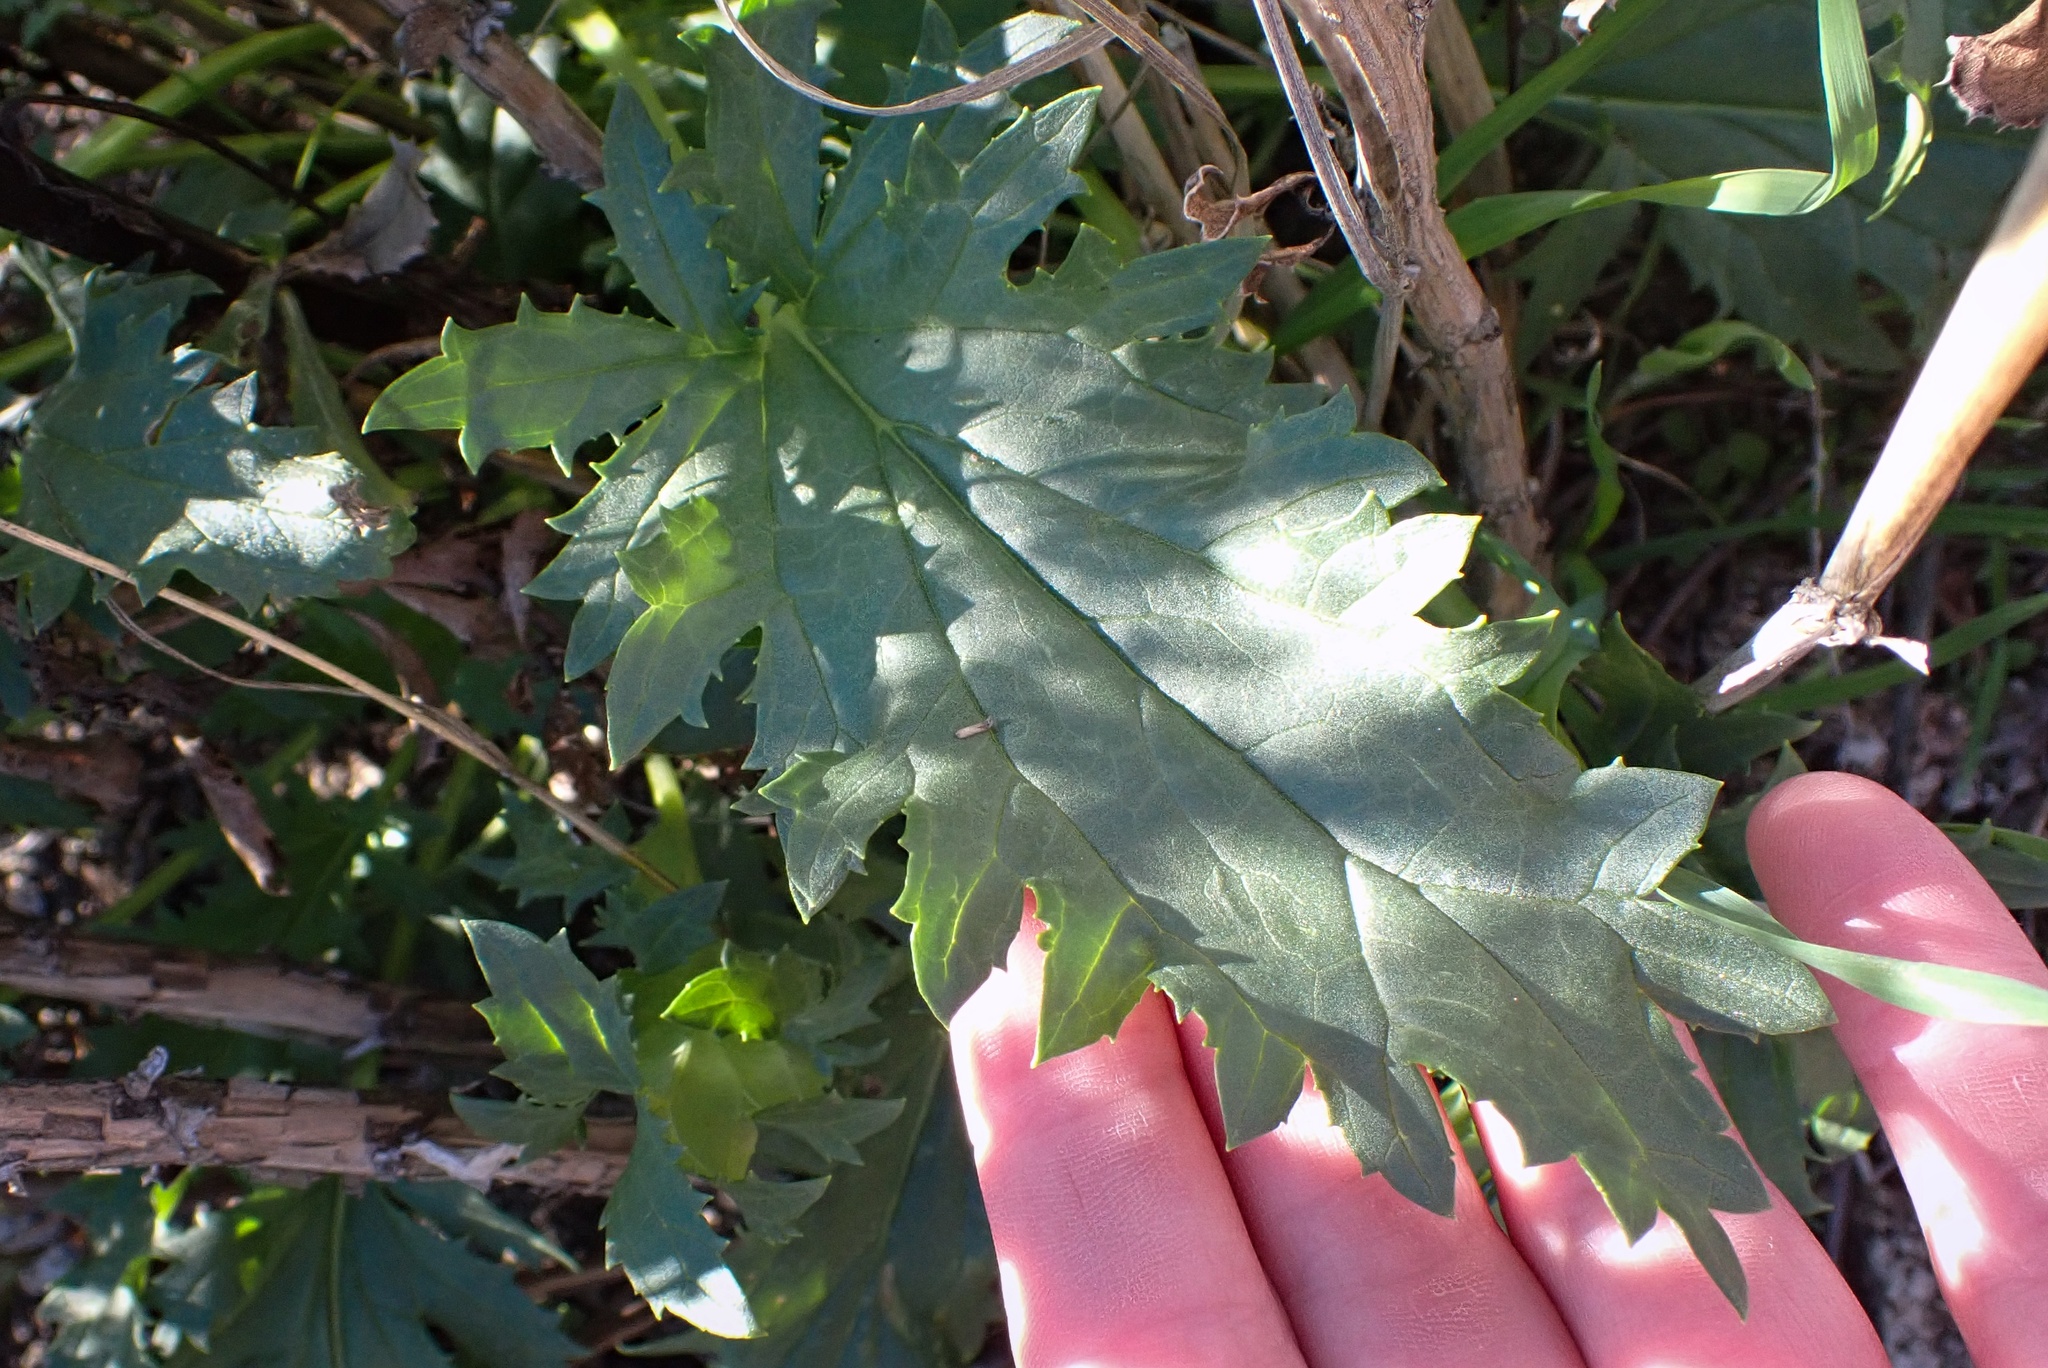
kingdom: Plantae
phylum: Tracheophyta
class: Magnoliopsida
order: Lamiales
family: Scrophulariaceae
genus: Scrophularia
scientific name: Scrophularia californica
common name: California figwort
